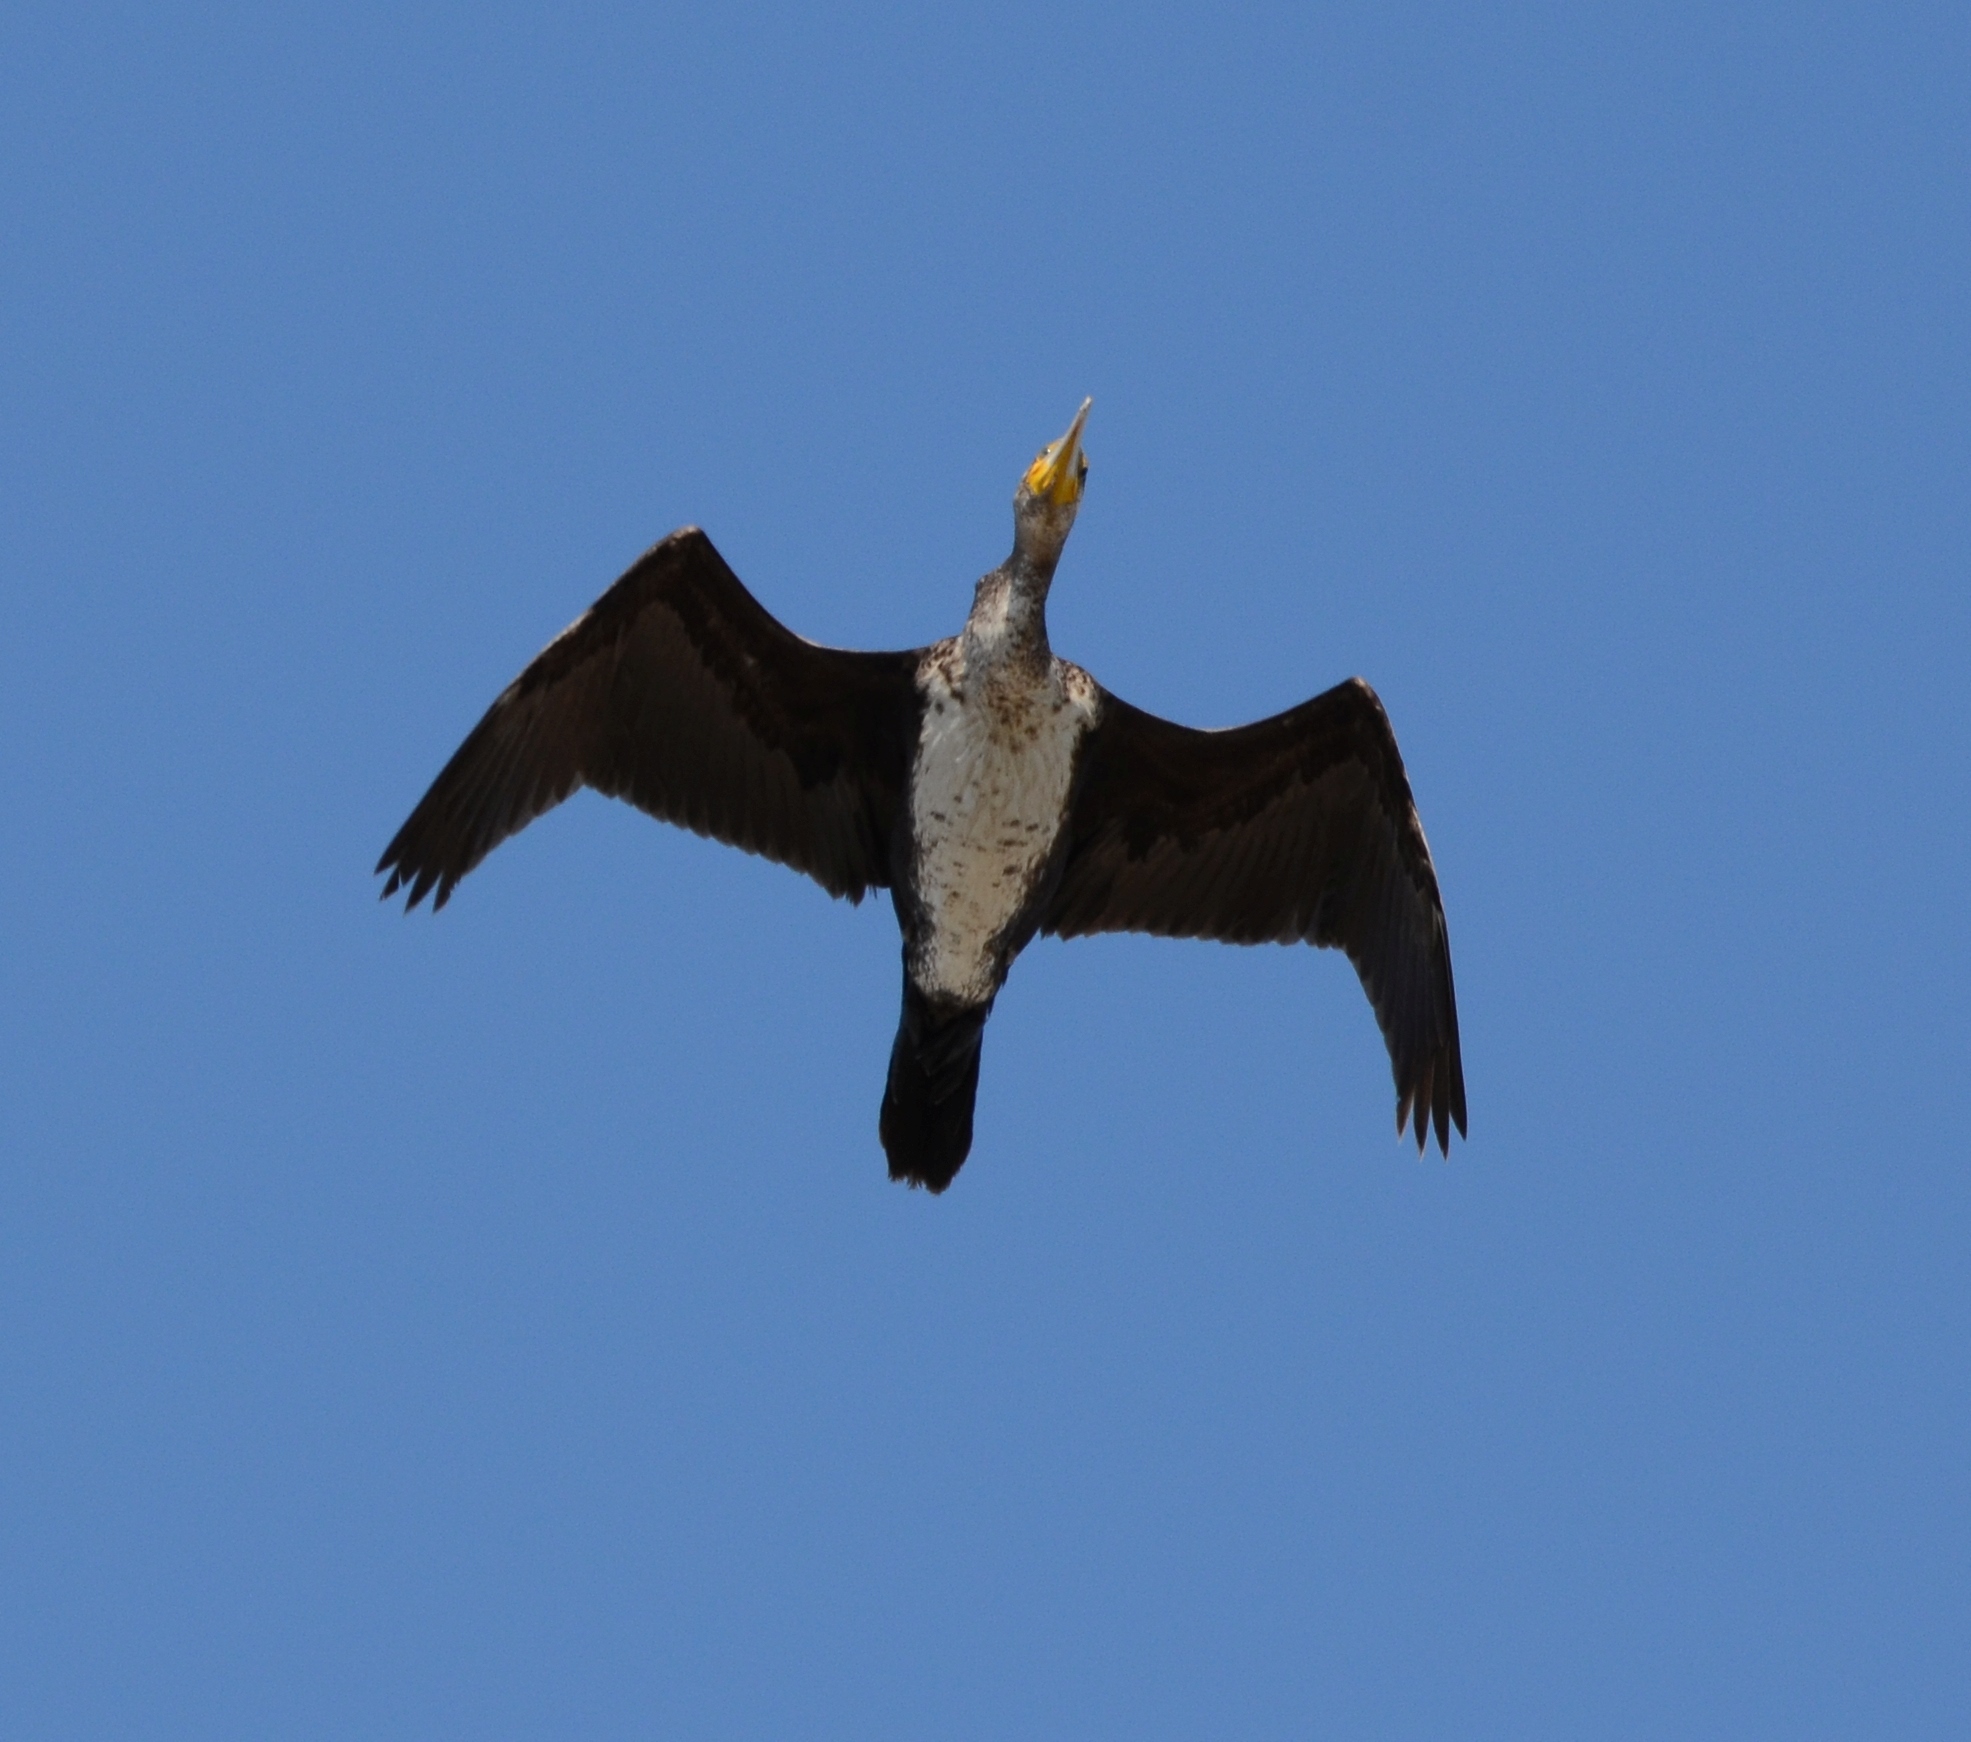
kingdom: Animalia
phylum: Chordata
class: Aves
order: Suliformes
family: Phalacrocoracidae
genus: Phalacrocorax
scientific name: Phalacrocorax carbo
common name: Great cormorant
